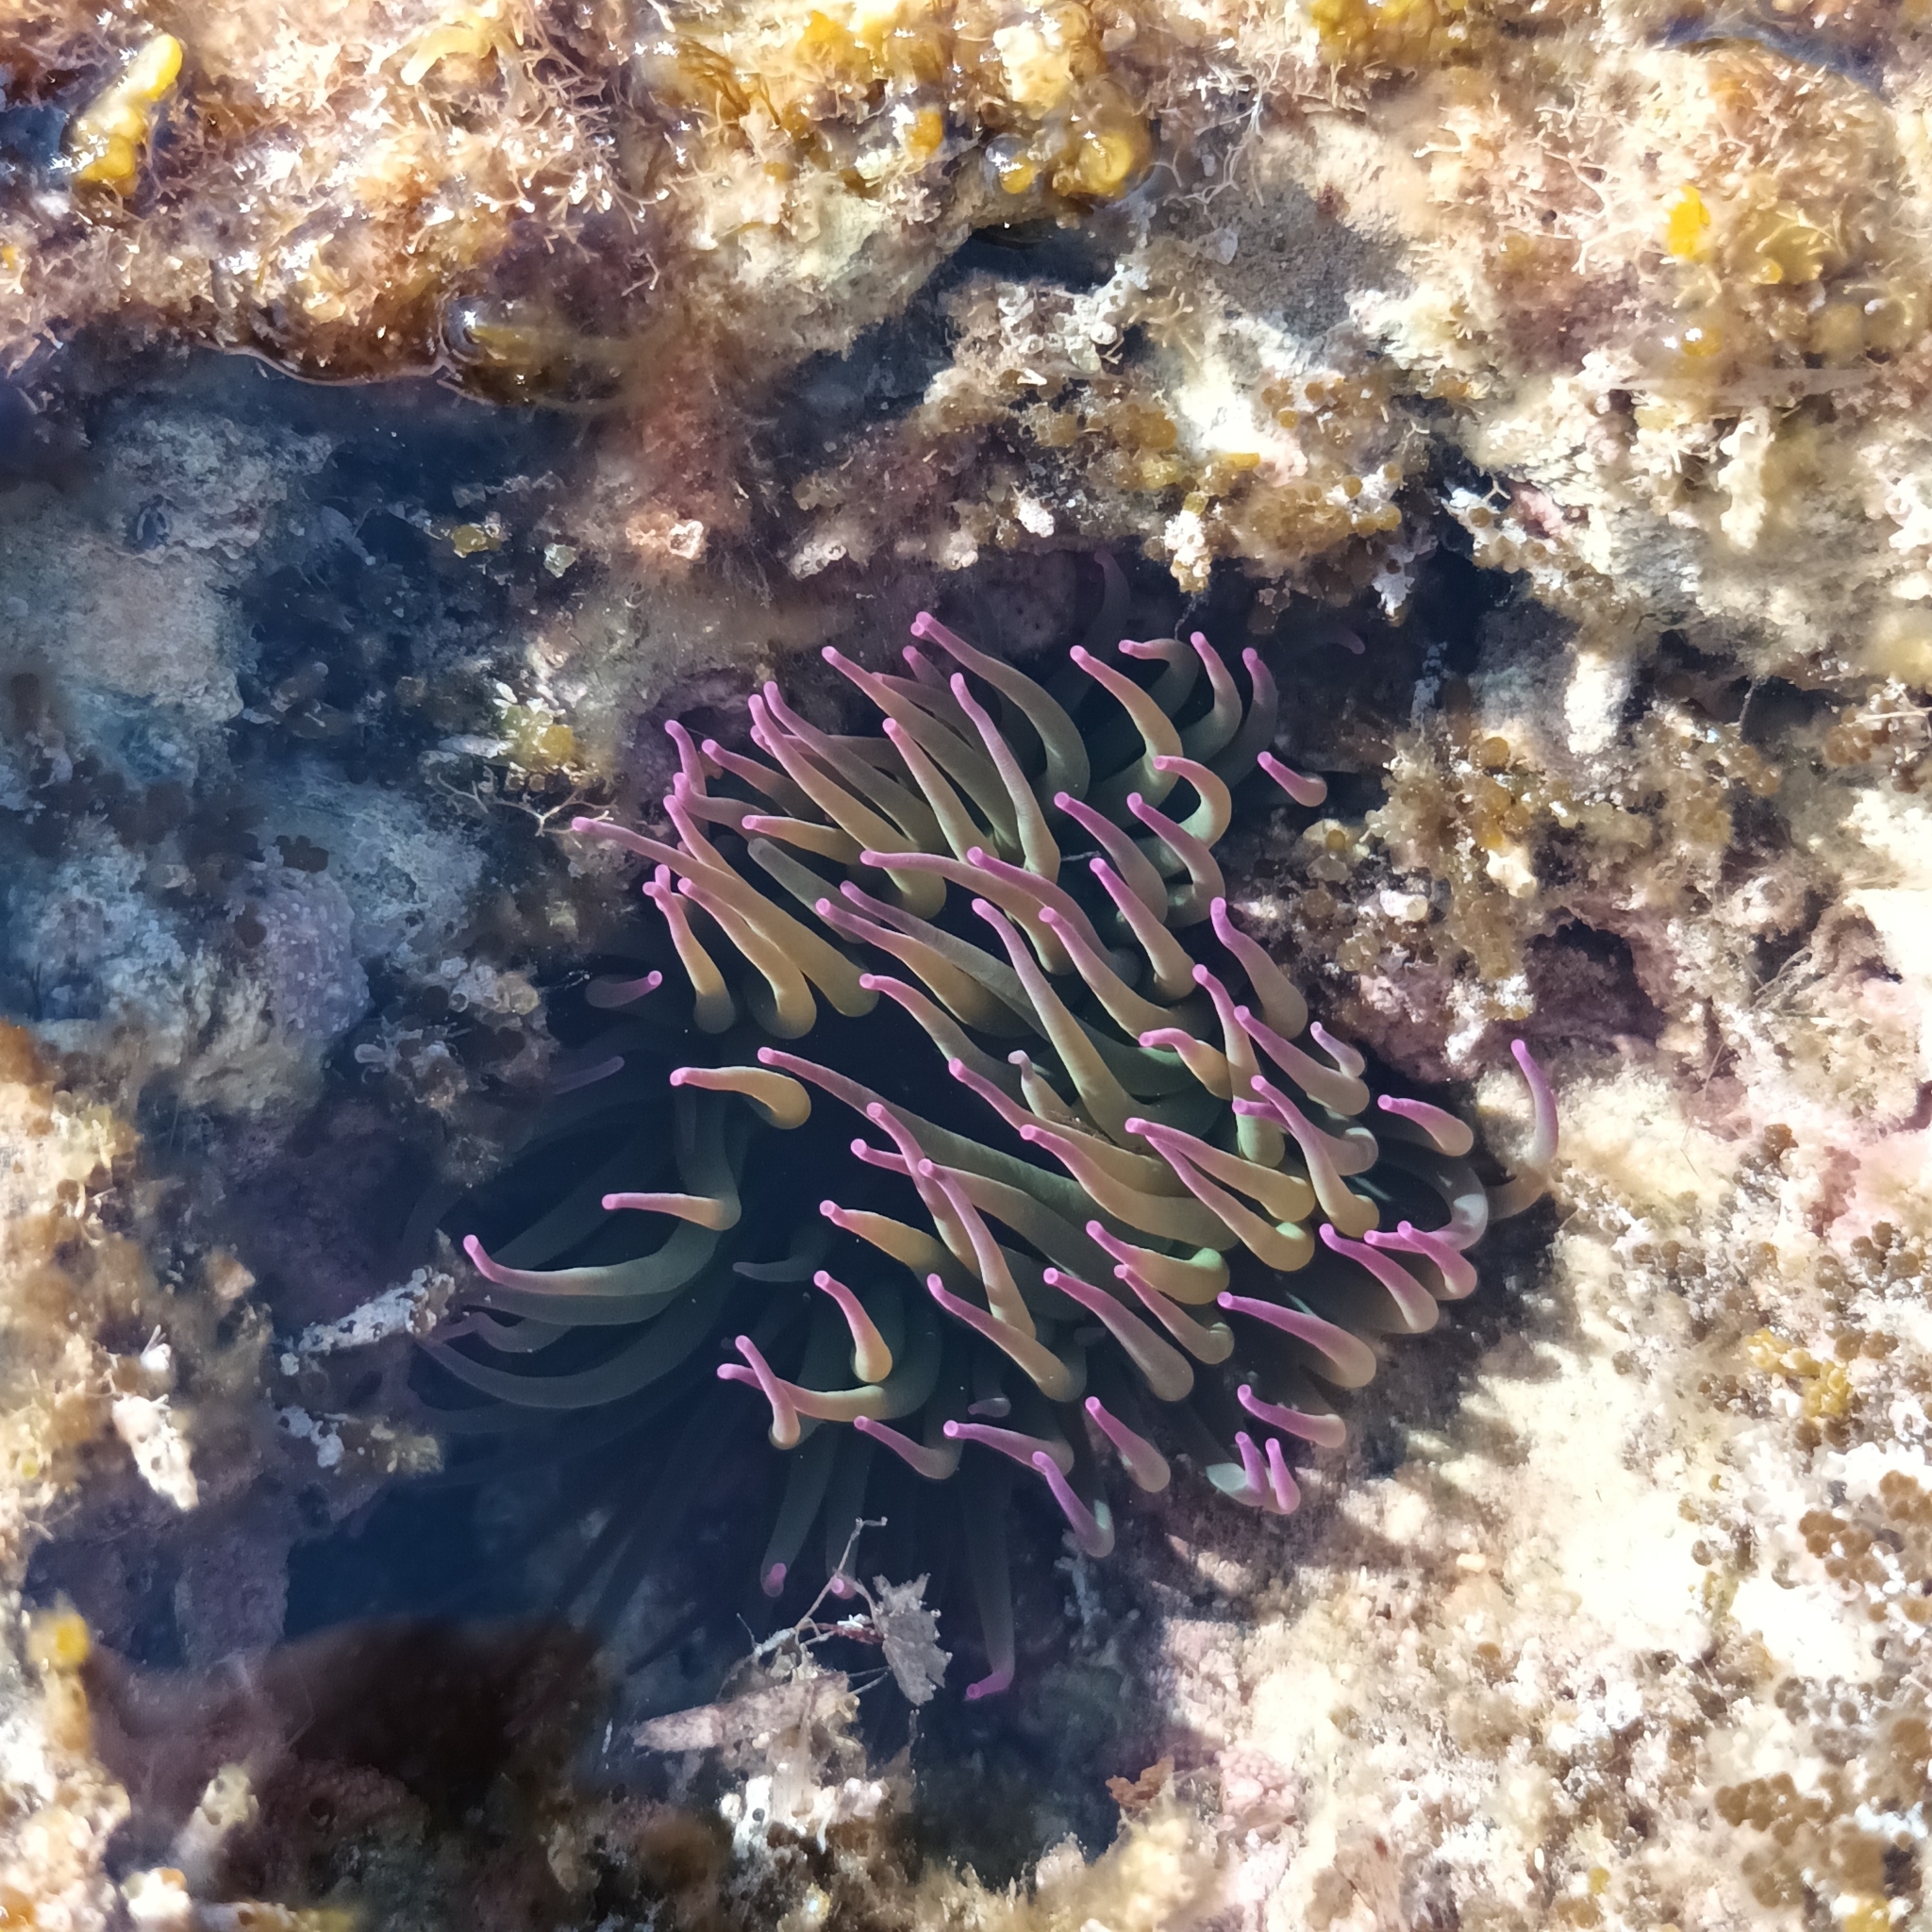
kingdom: Animalia
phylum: Cnidaria
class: Anthozoa
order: Actiniaria
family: Actiniidae
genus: Anemonia
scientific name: Anemonia viridis
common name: Snakelocks anemone
